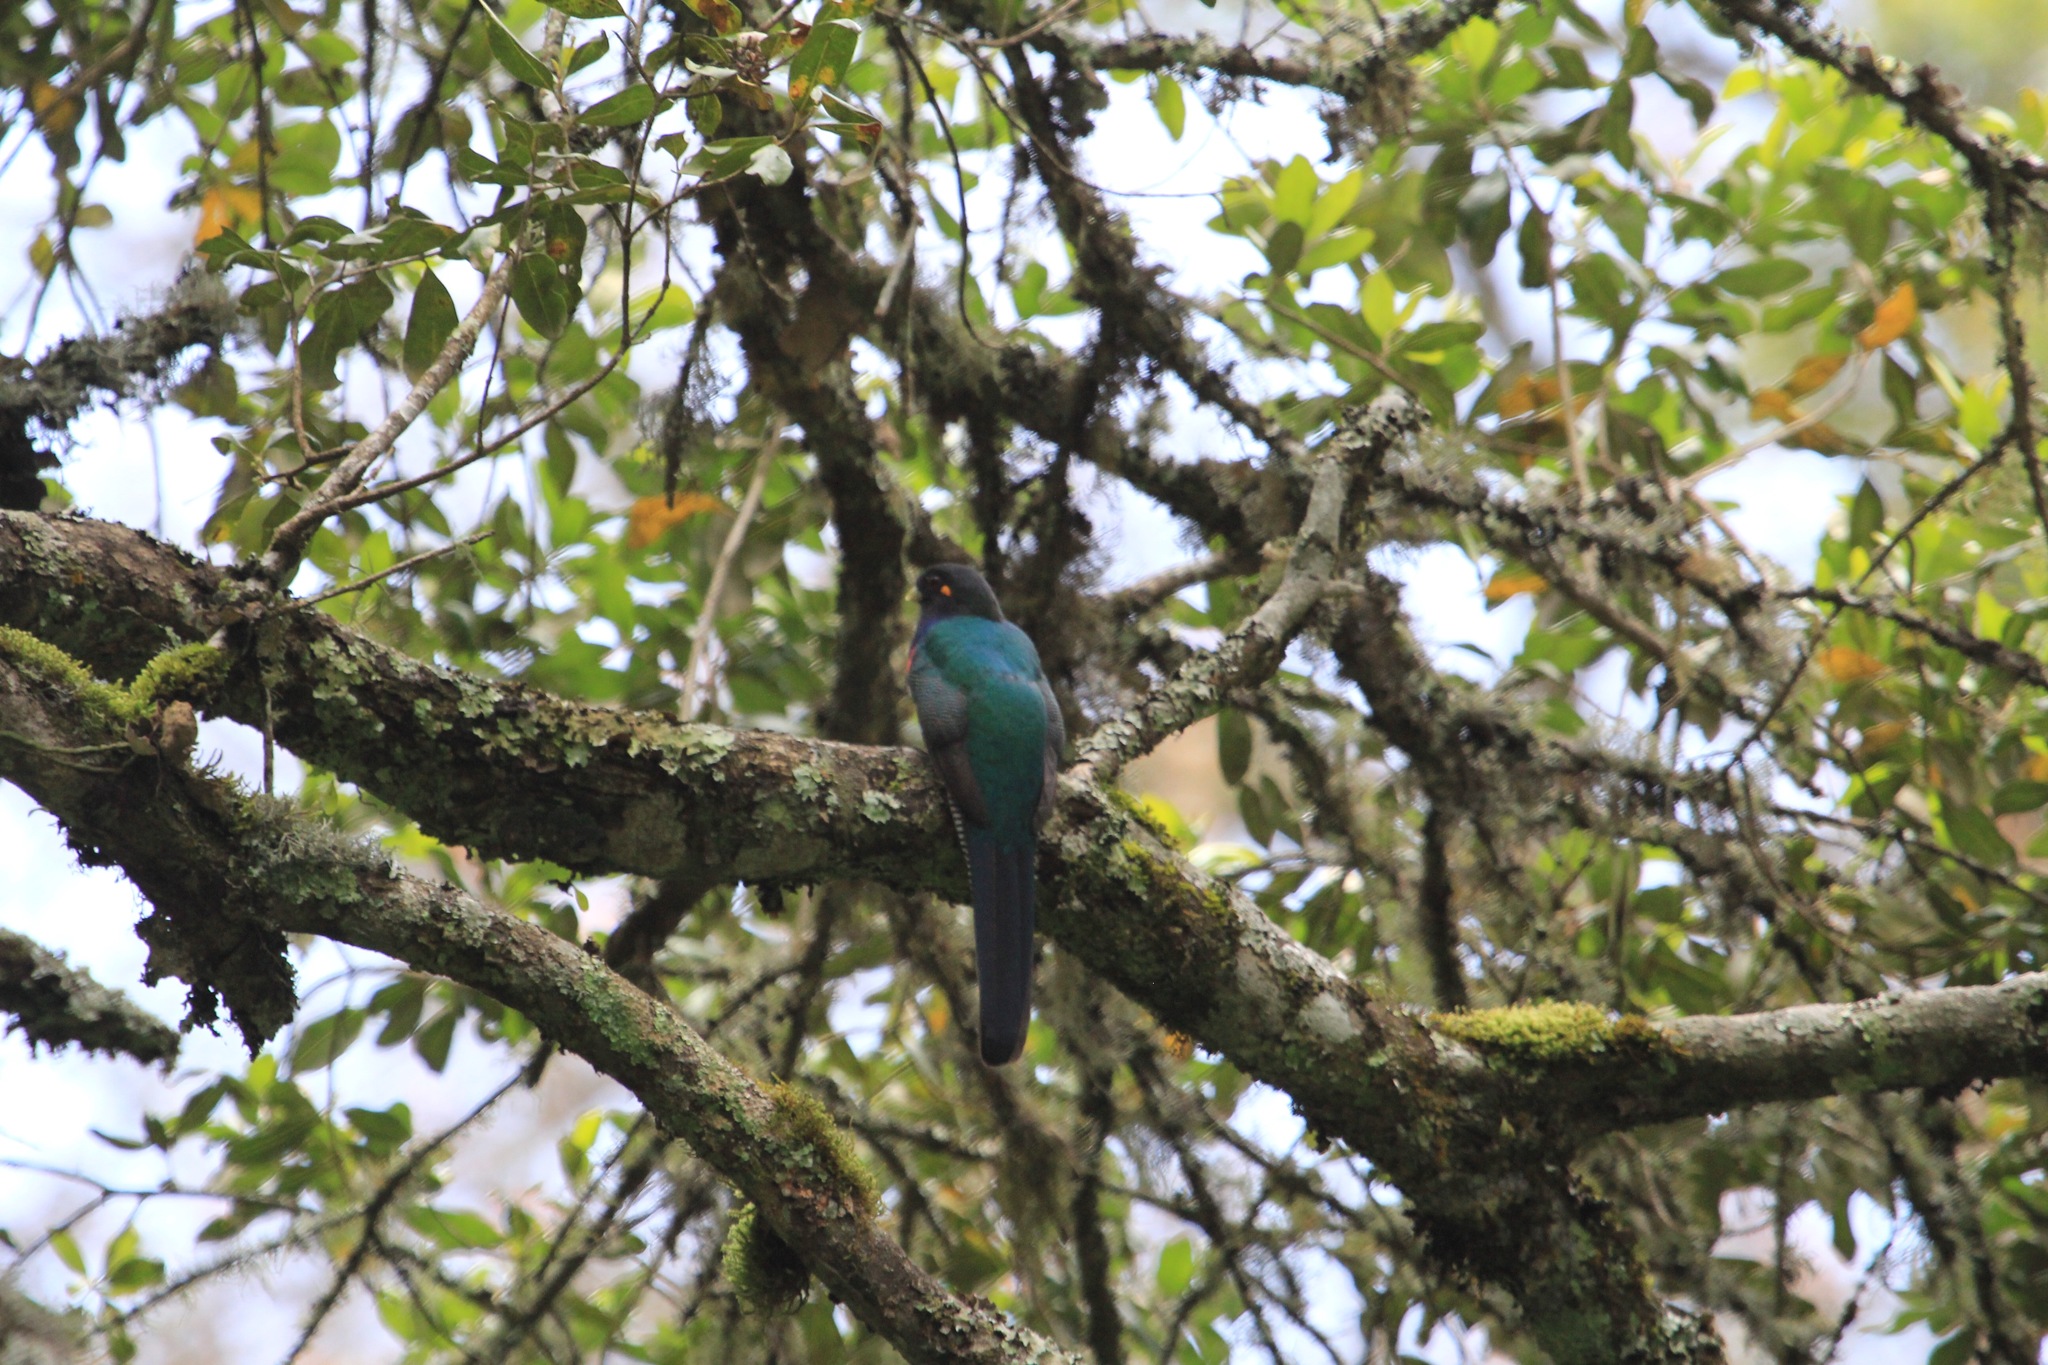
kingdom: Animalia
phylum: Chordata
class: Aves
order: Trogoniformes
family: Trogonidae
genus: Apaloderma
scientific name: Apaloderma vittatum
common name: Bar-tailed trogon
